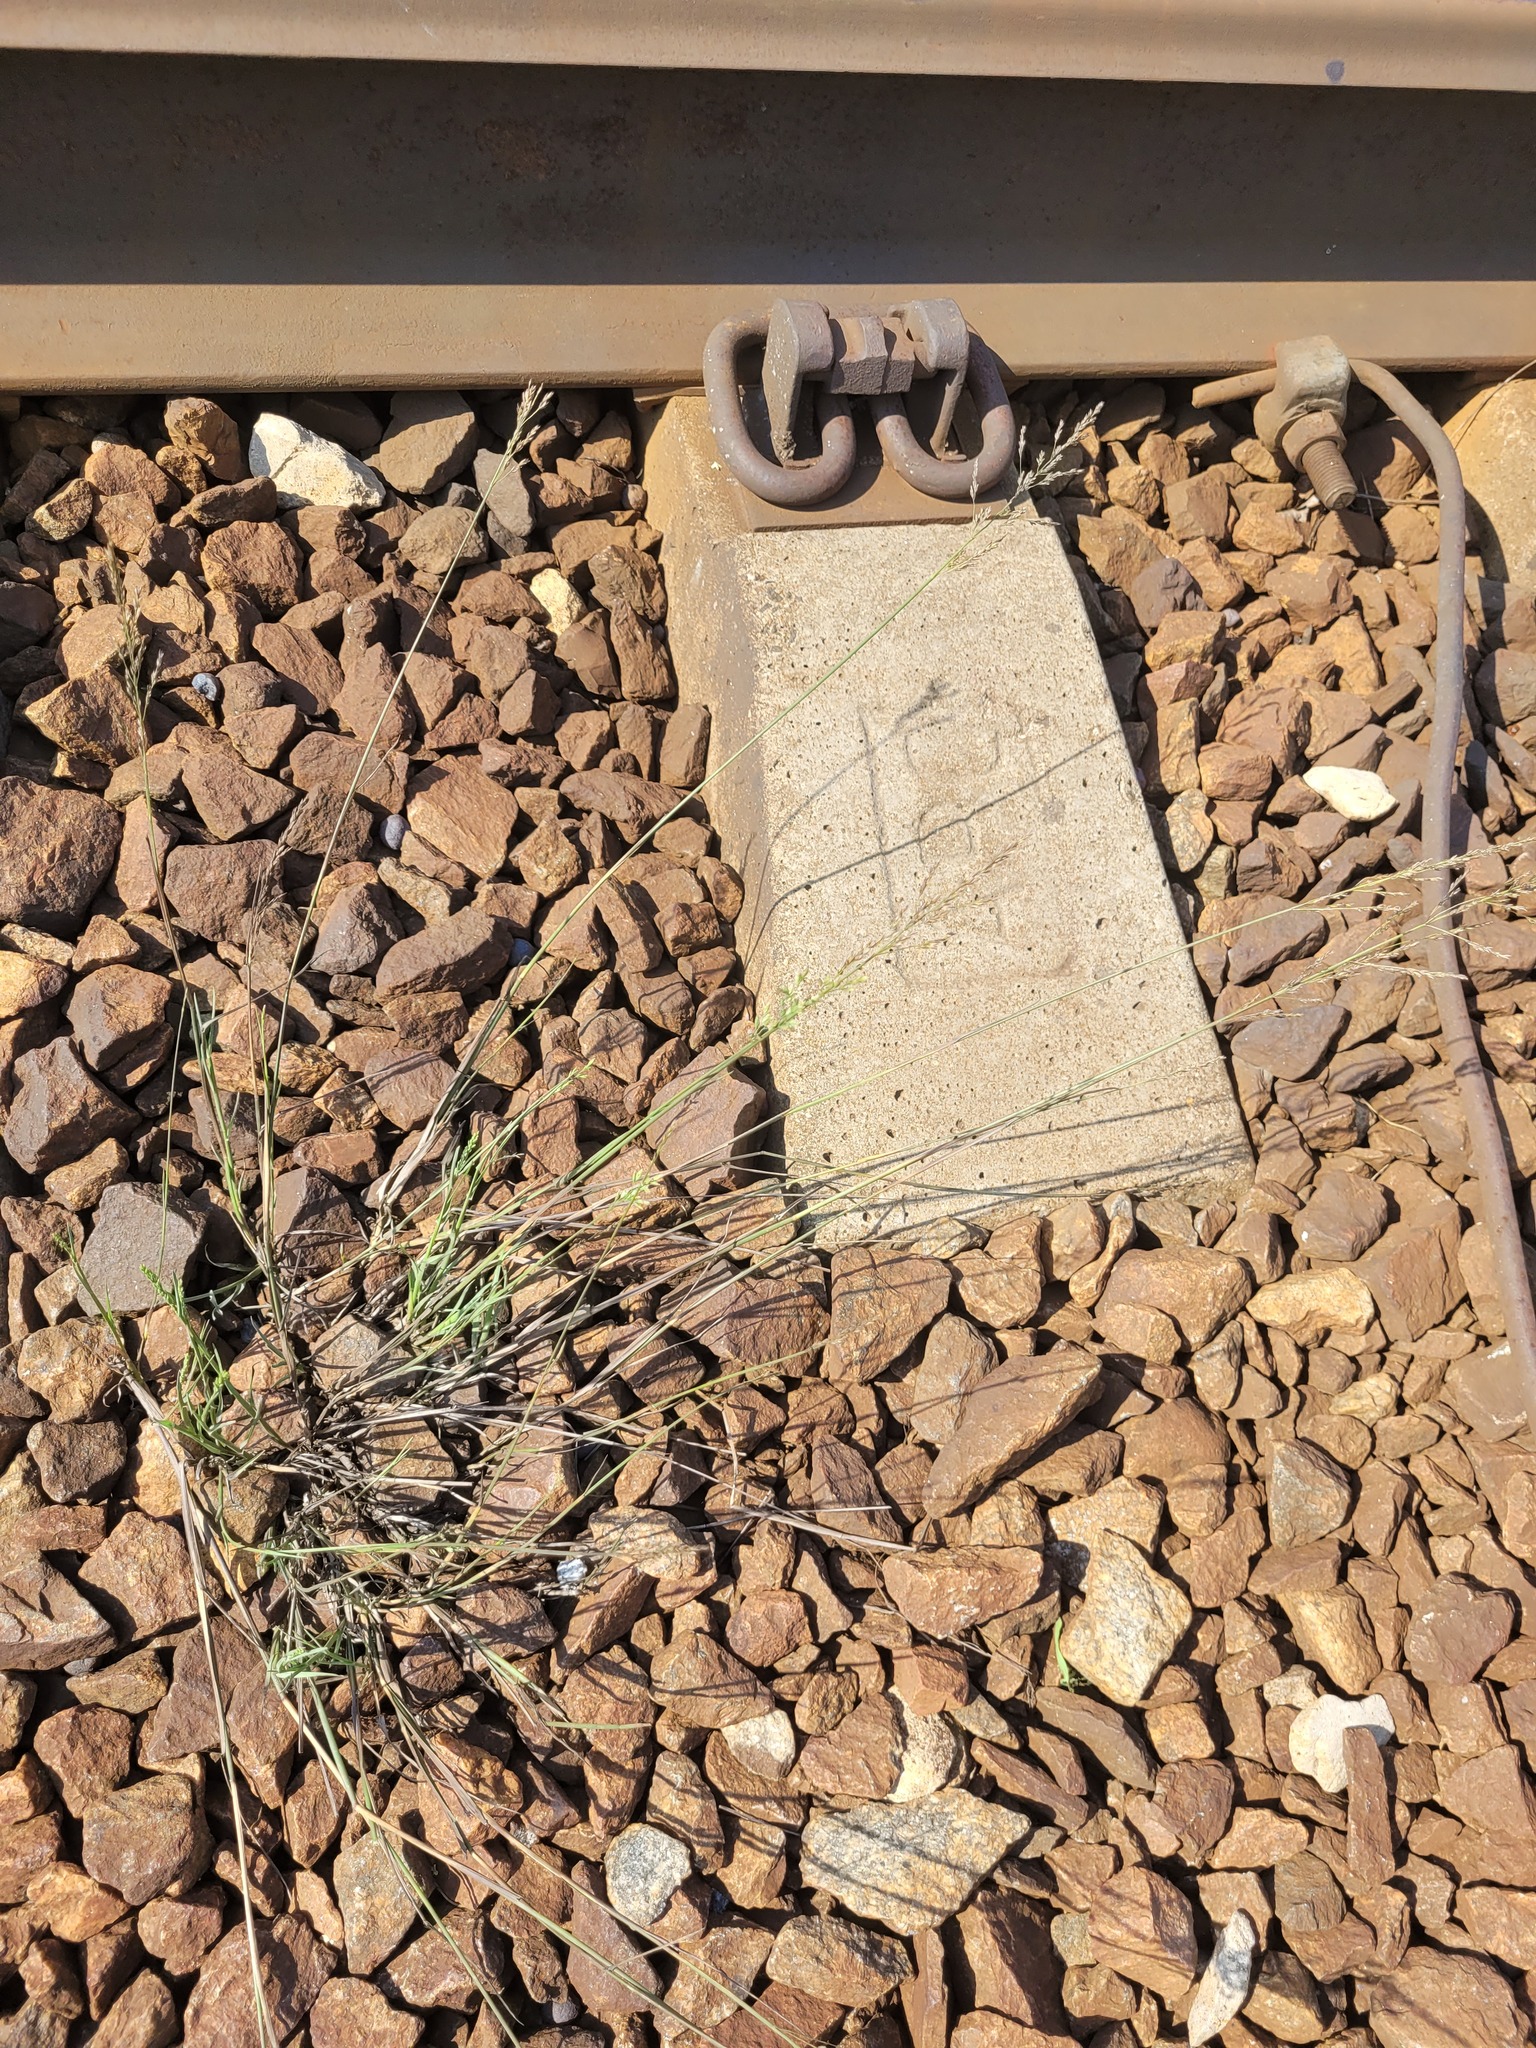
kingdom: Plantae
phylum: Tracheophyta
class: Liliopsida
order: Poales
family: Poaceae
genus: Poa
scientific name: Poa compressa
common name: Canada bluegrass
